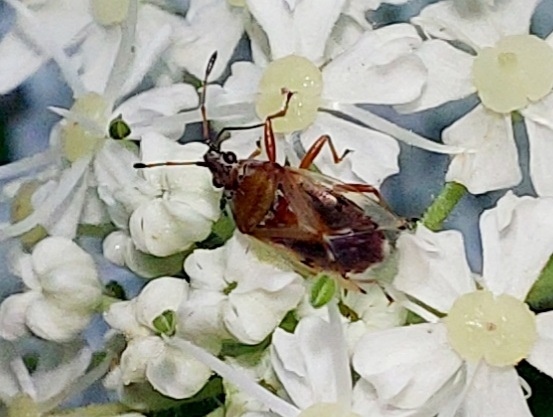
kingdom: Animalia
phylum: Arthropoda
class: Insecta
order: Hemiptera
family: Lygaeidae
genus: Kleidocerys
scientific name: Kleidocerys resedae
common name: Birch catkin bug
